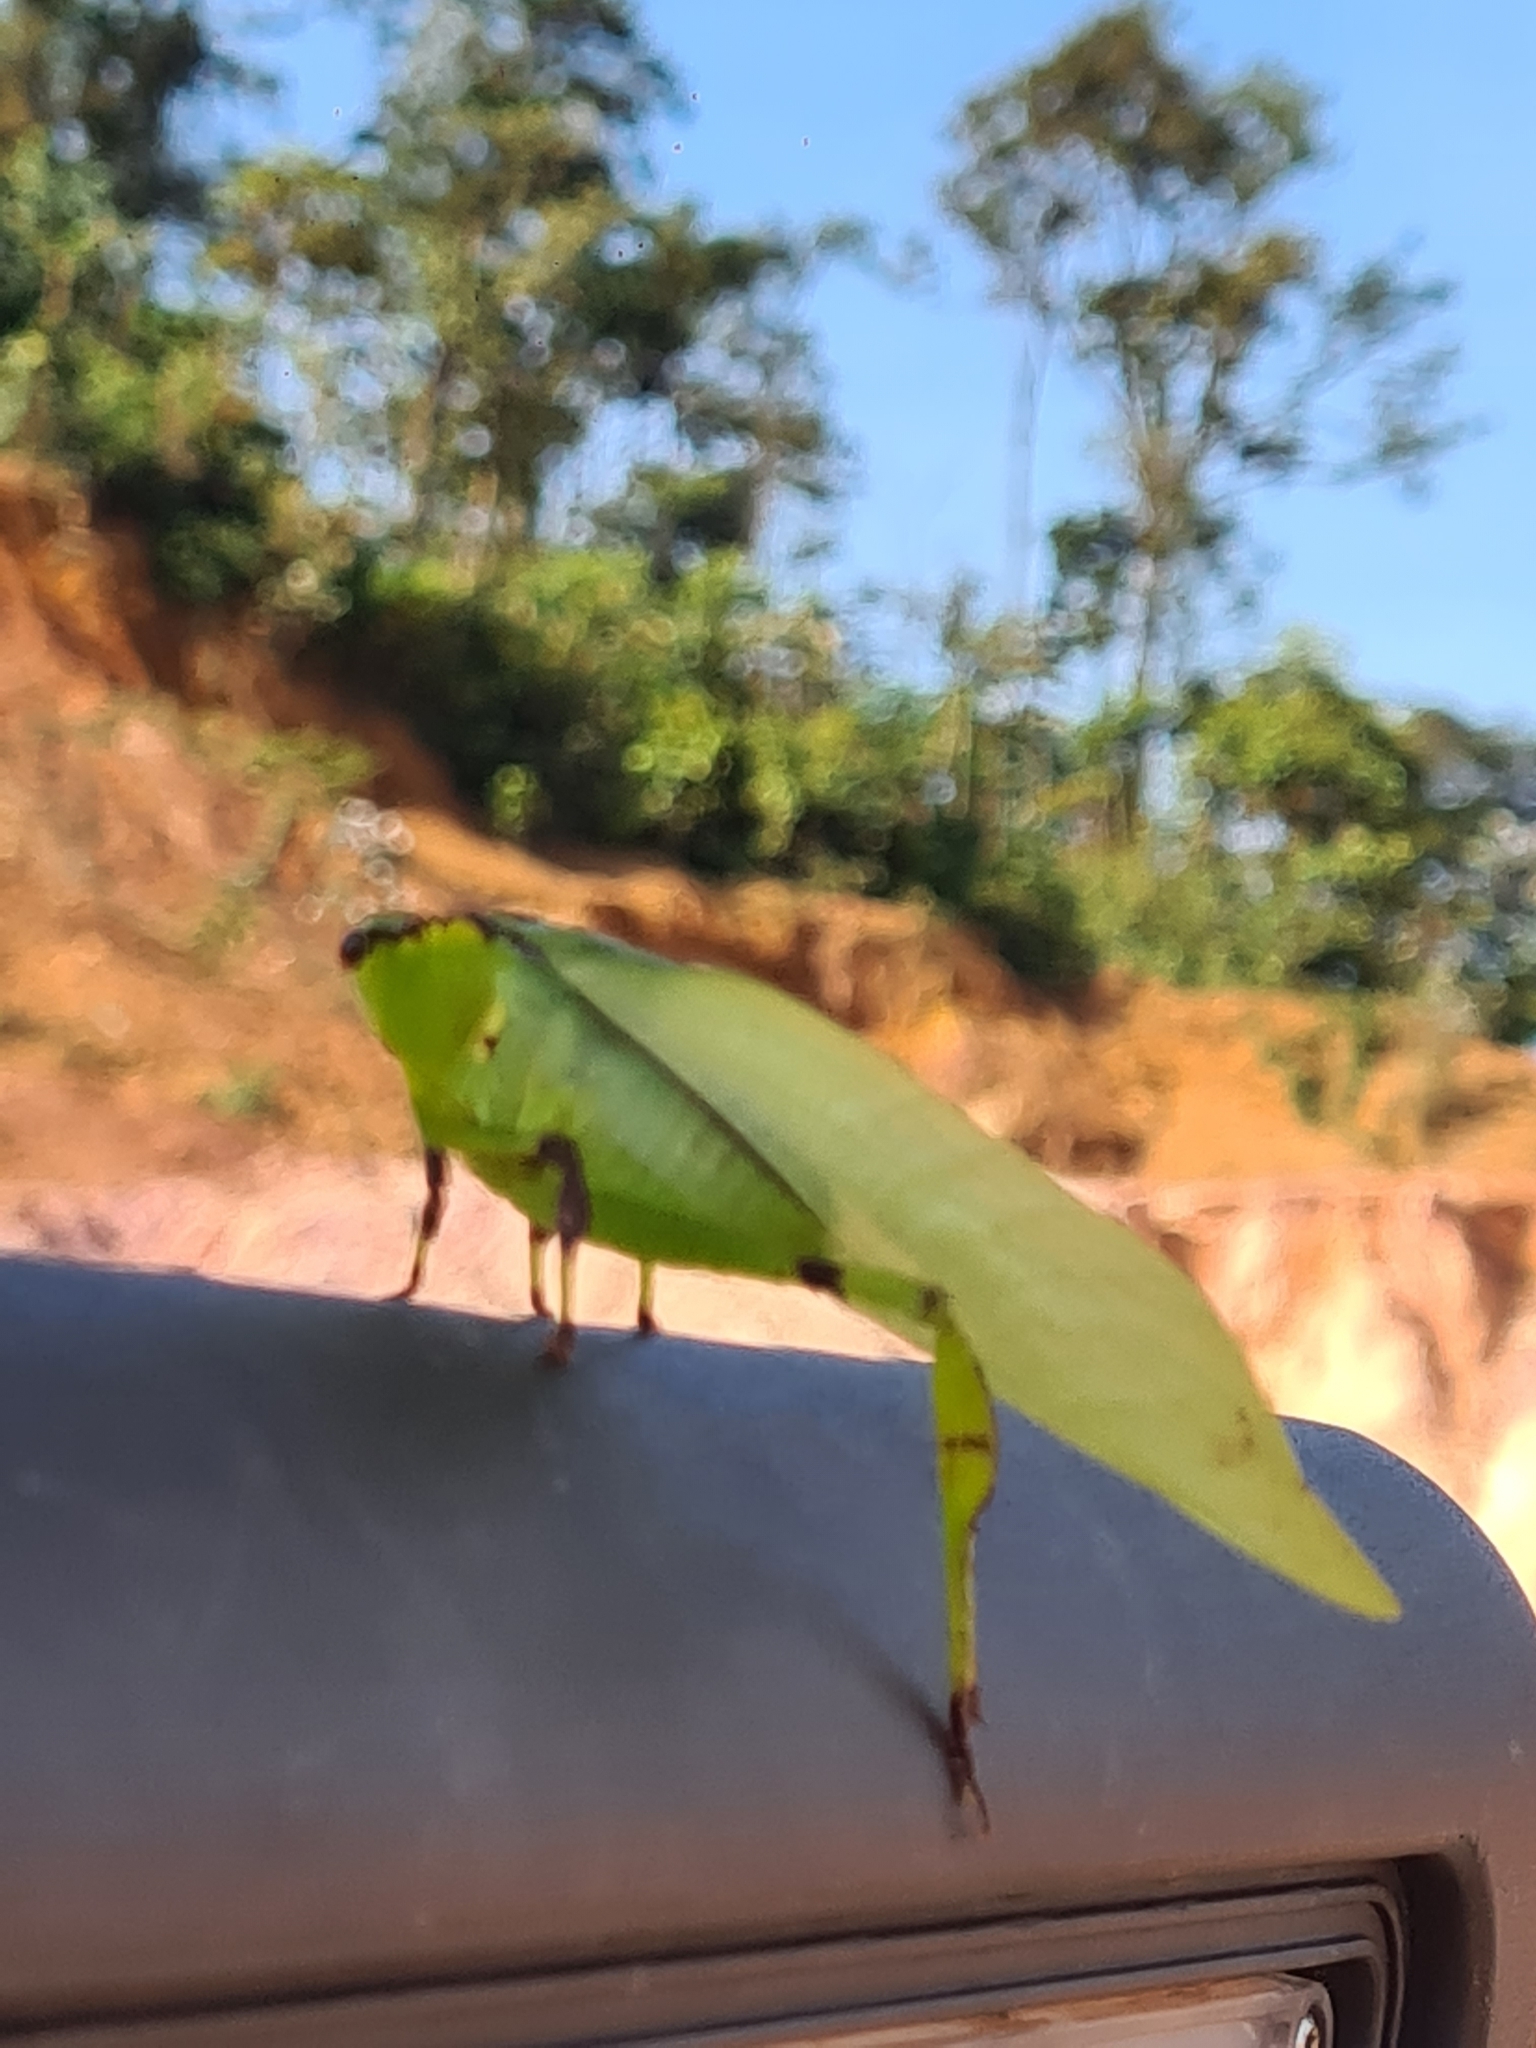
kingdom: Animalia
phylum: Arthropoda
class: Insecta
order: Orthoptera
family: Tettigoniidae
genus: Cnemidophyllum
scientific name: Cnemidophyllum lineatum
